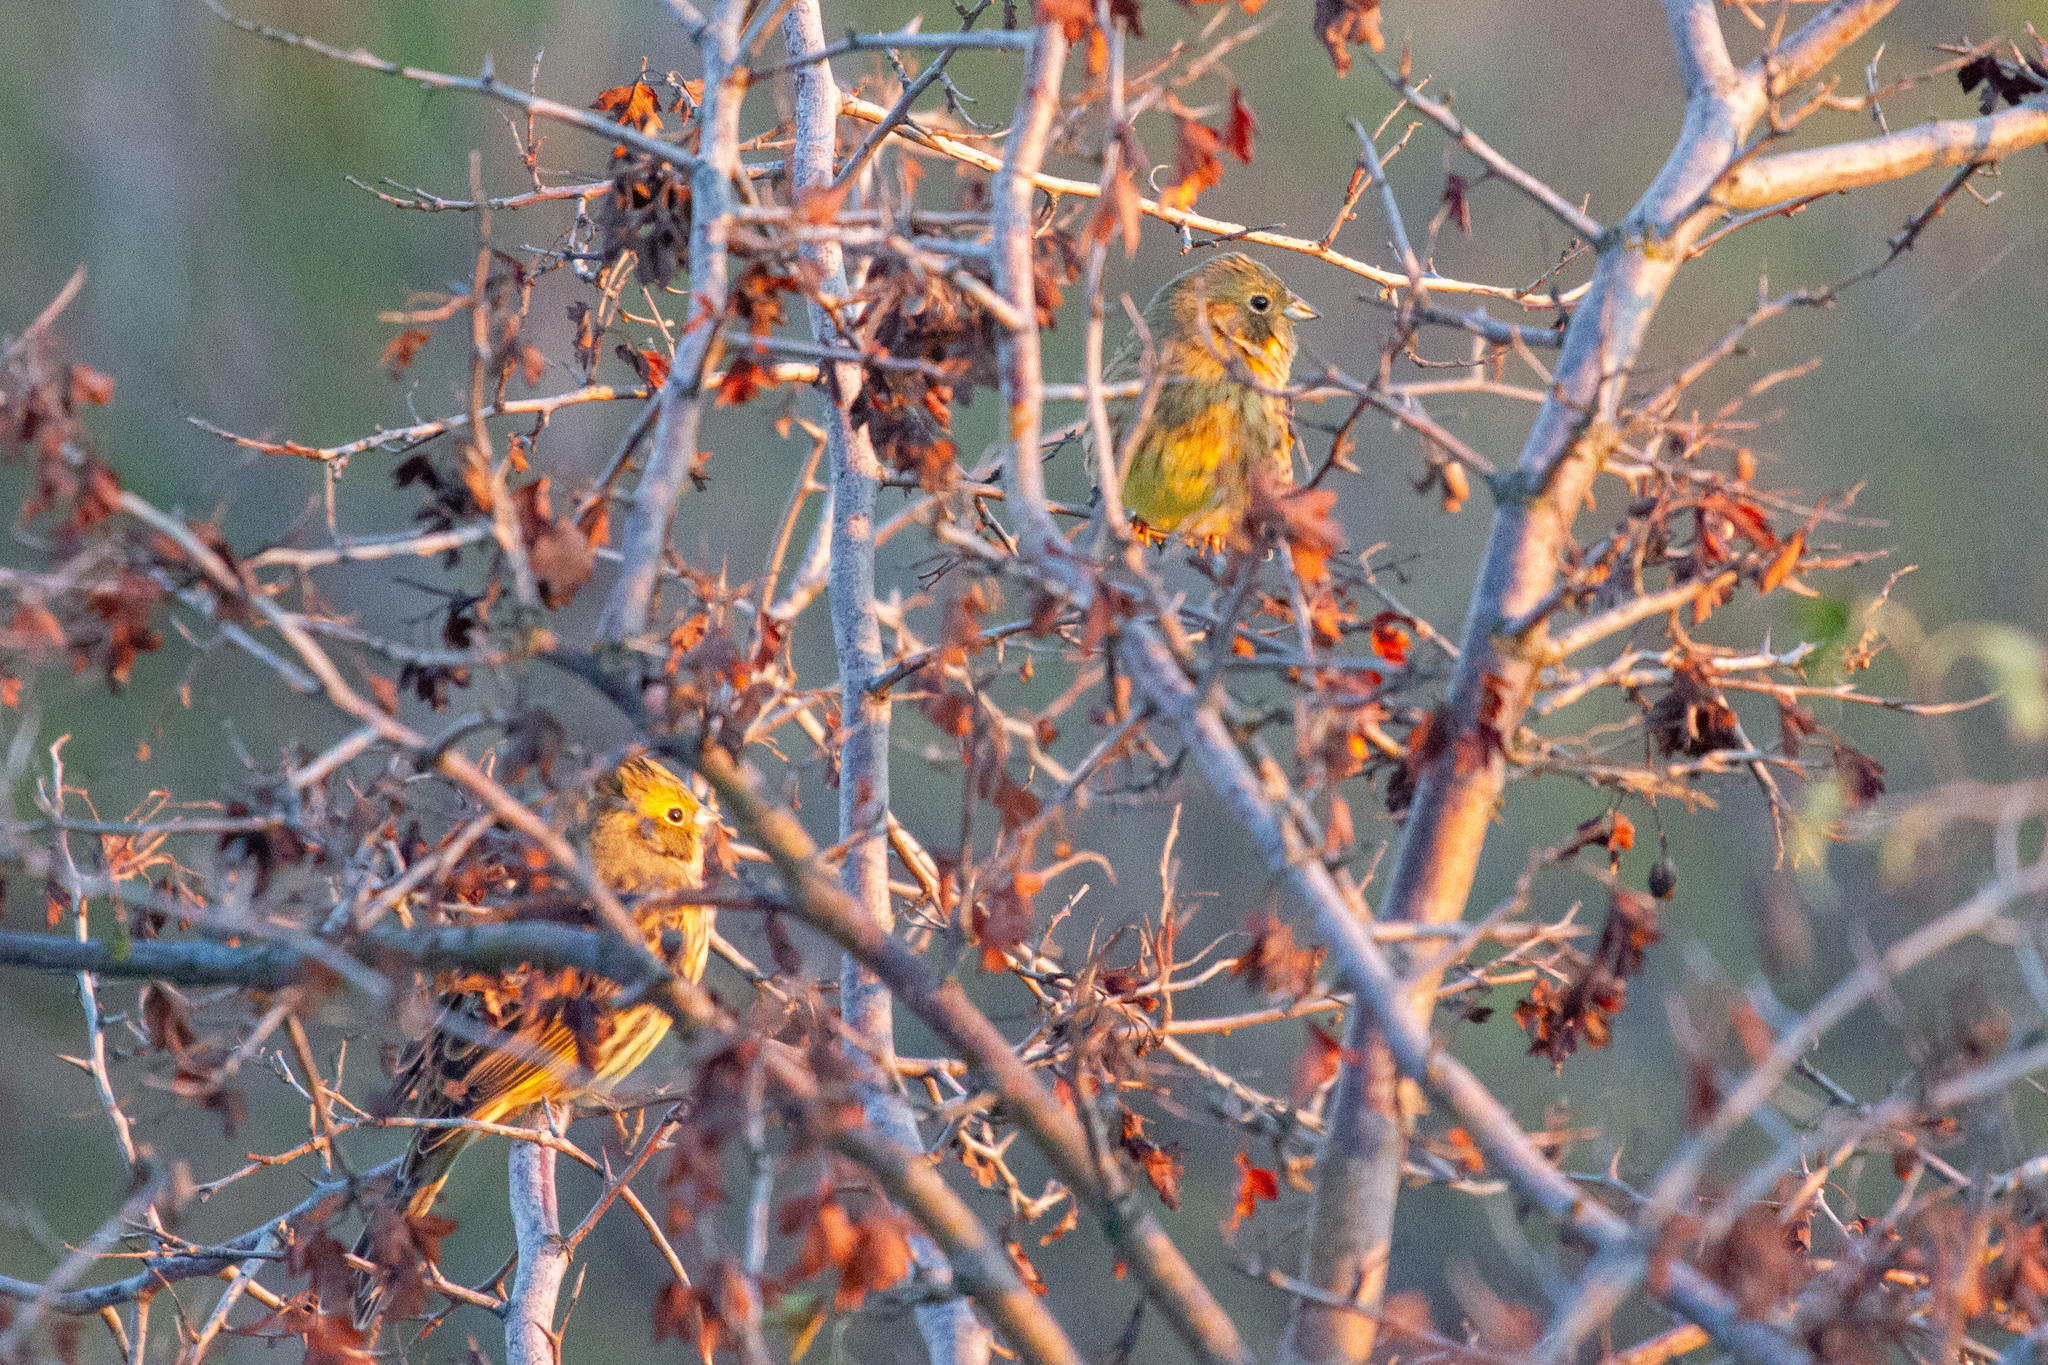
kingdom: Animalia
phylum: Chordata
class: Aves
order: Passeriformes
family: Emberizidae
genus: Emberiza
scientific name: Emberiza citrinella
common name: Yellowhammer
